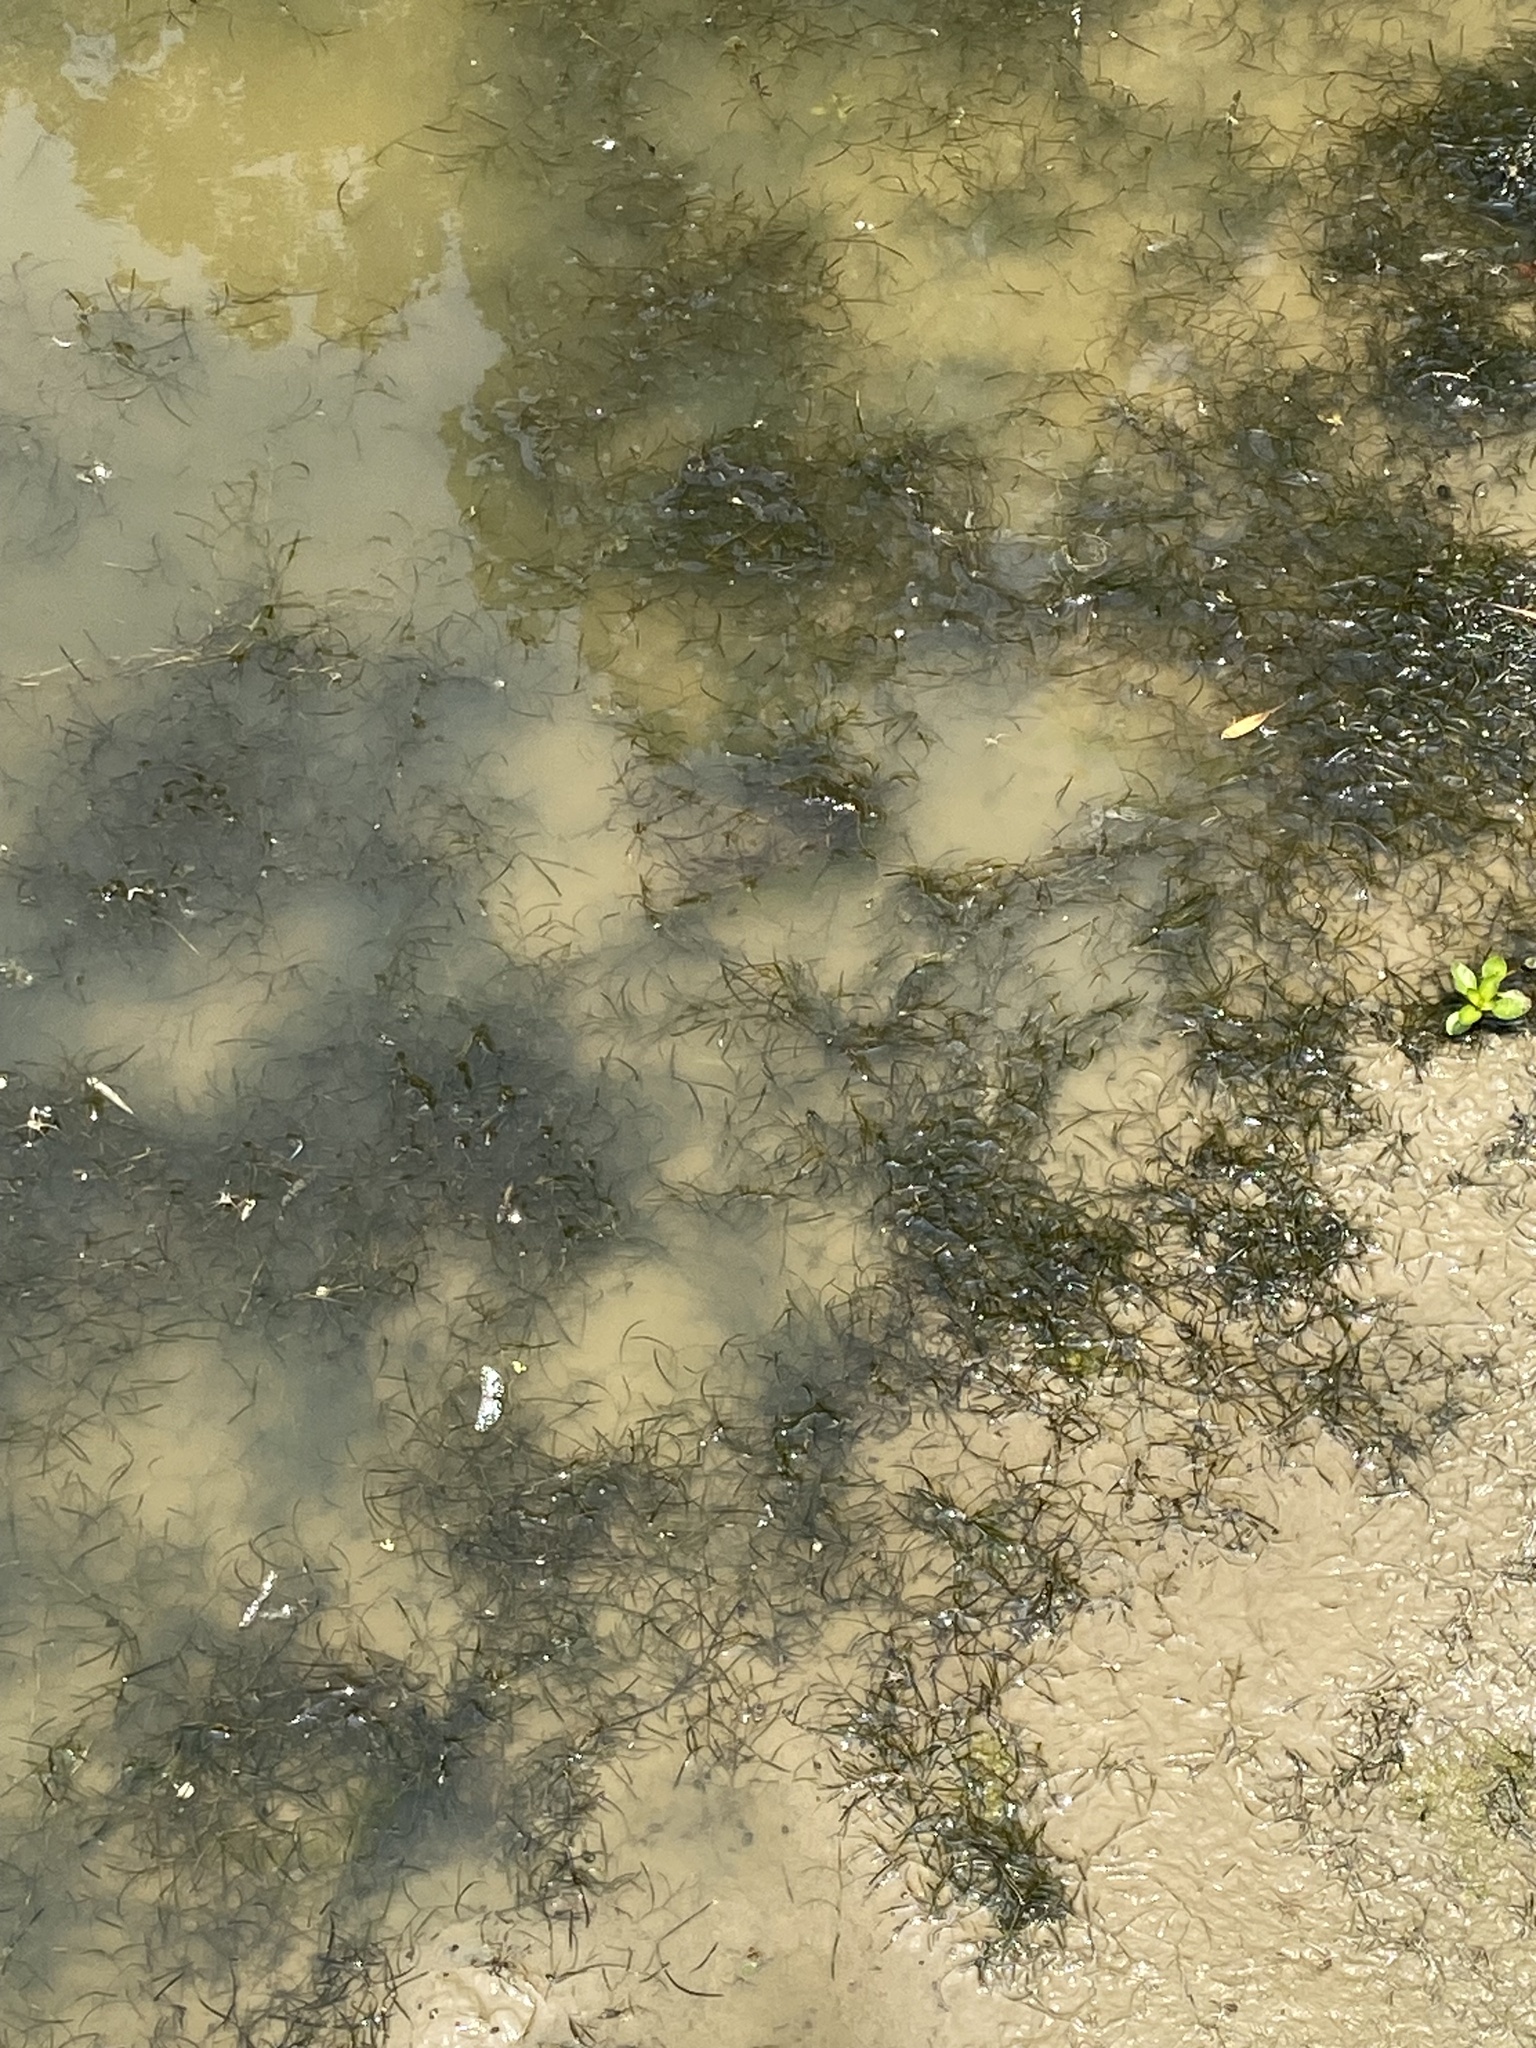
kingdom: Plantae
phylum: Tracheophyta
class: Liliopsida
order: Alismatales
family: Potamogetonaceae
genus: Potamogeton
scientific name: Potamogeton foliosus
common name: Leafy pondweed
